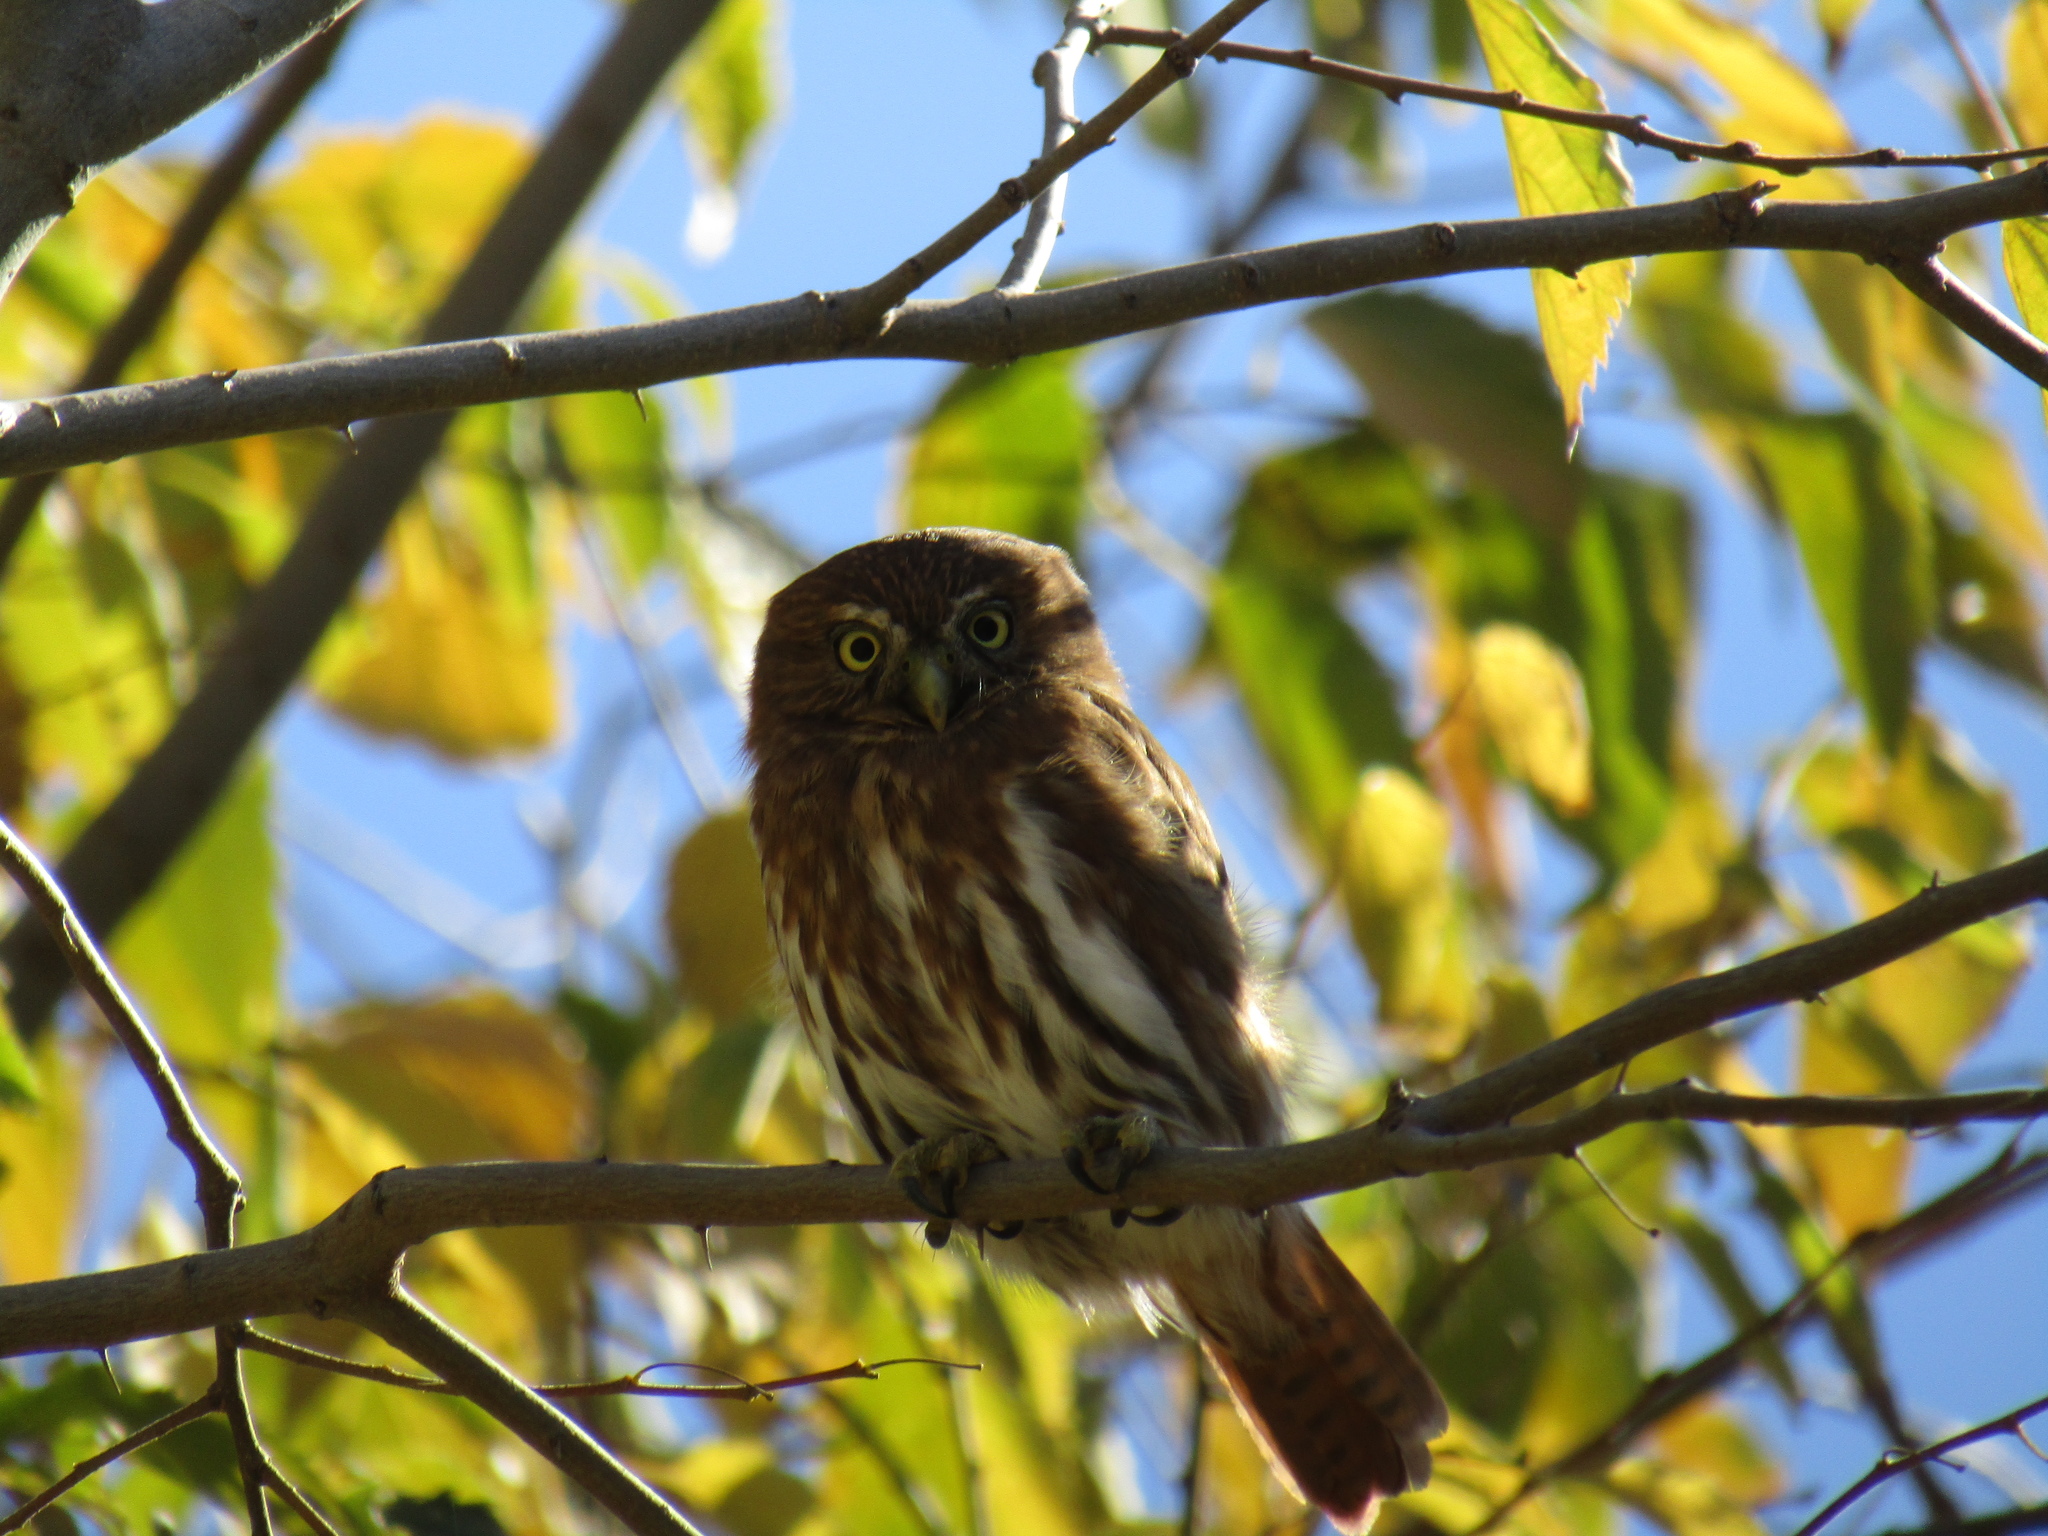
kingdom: Animalia
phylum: Chordata
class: Aves
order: Strigiformes
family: Strigidae
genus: Glaucidium
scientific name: Glaucidium brasilianum
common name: Ferruginous pygmy-owl
